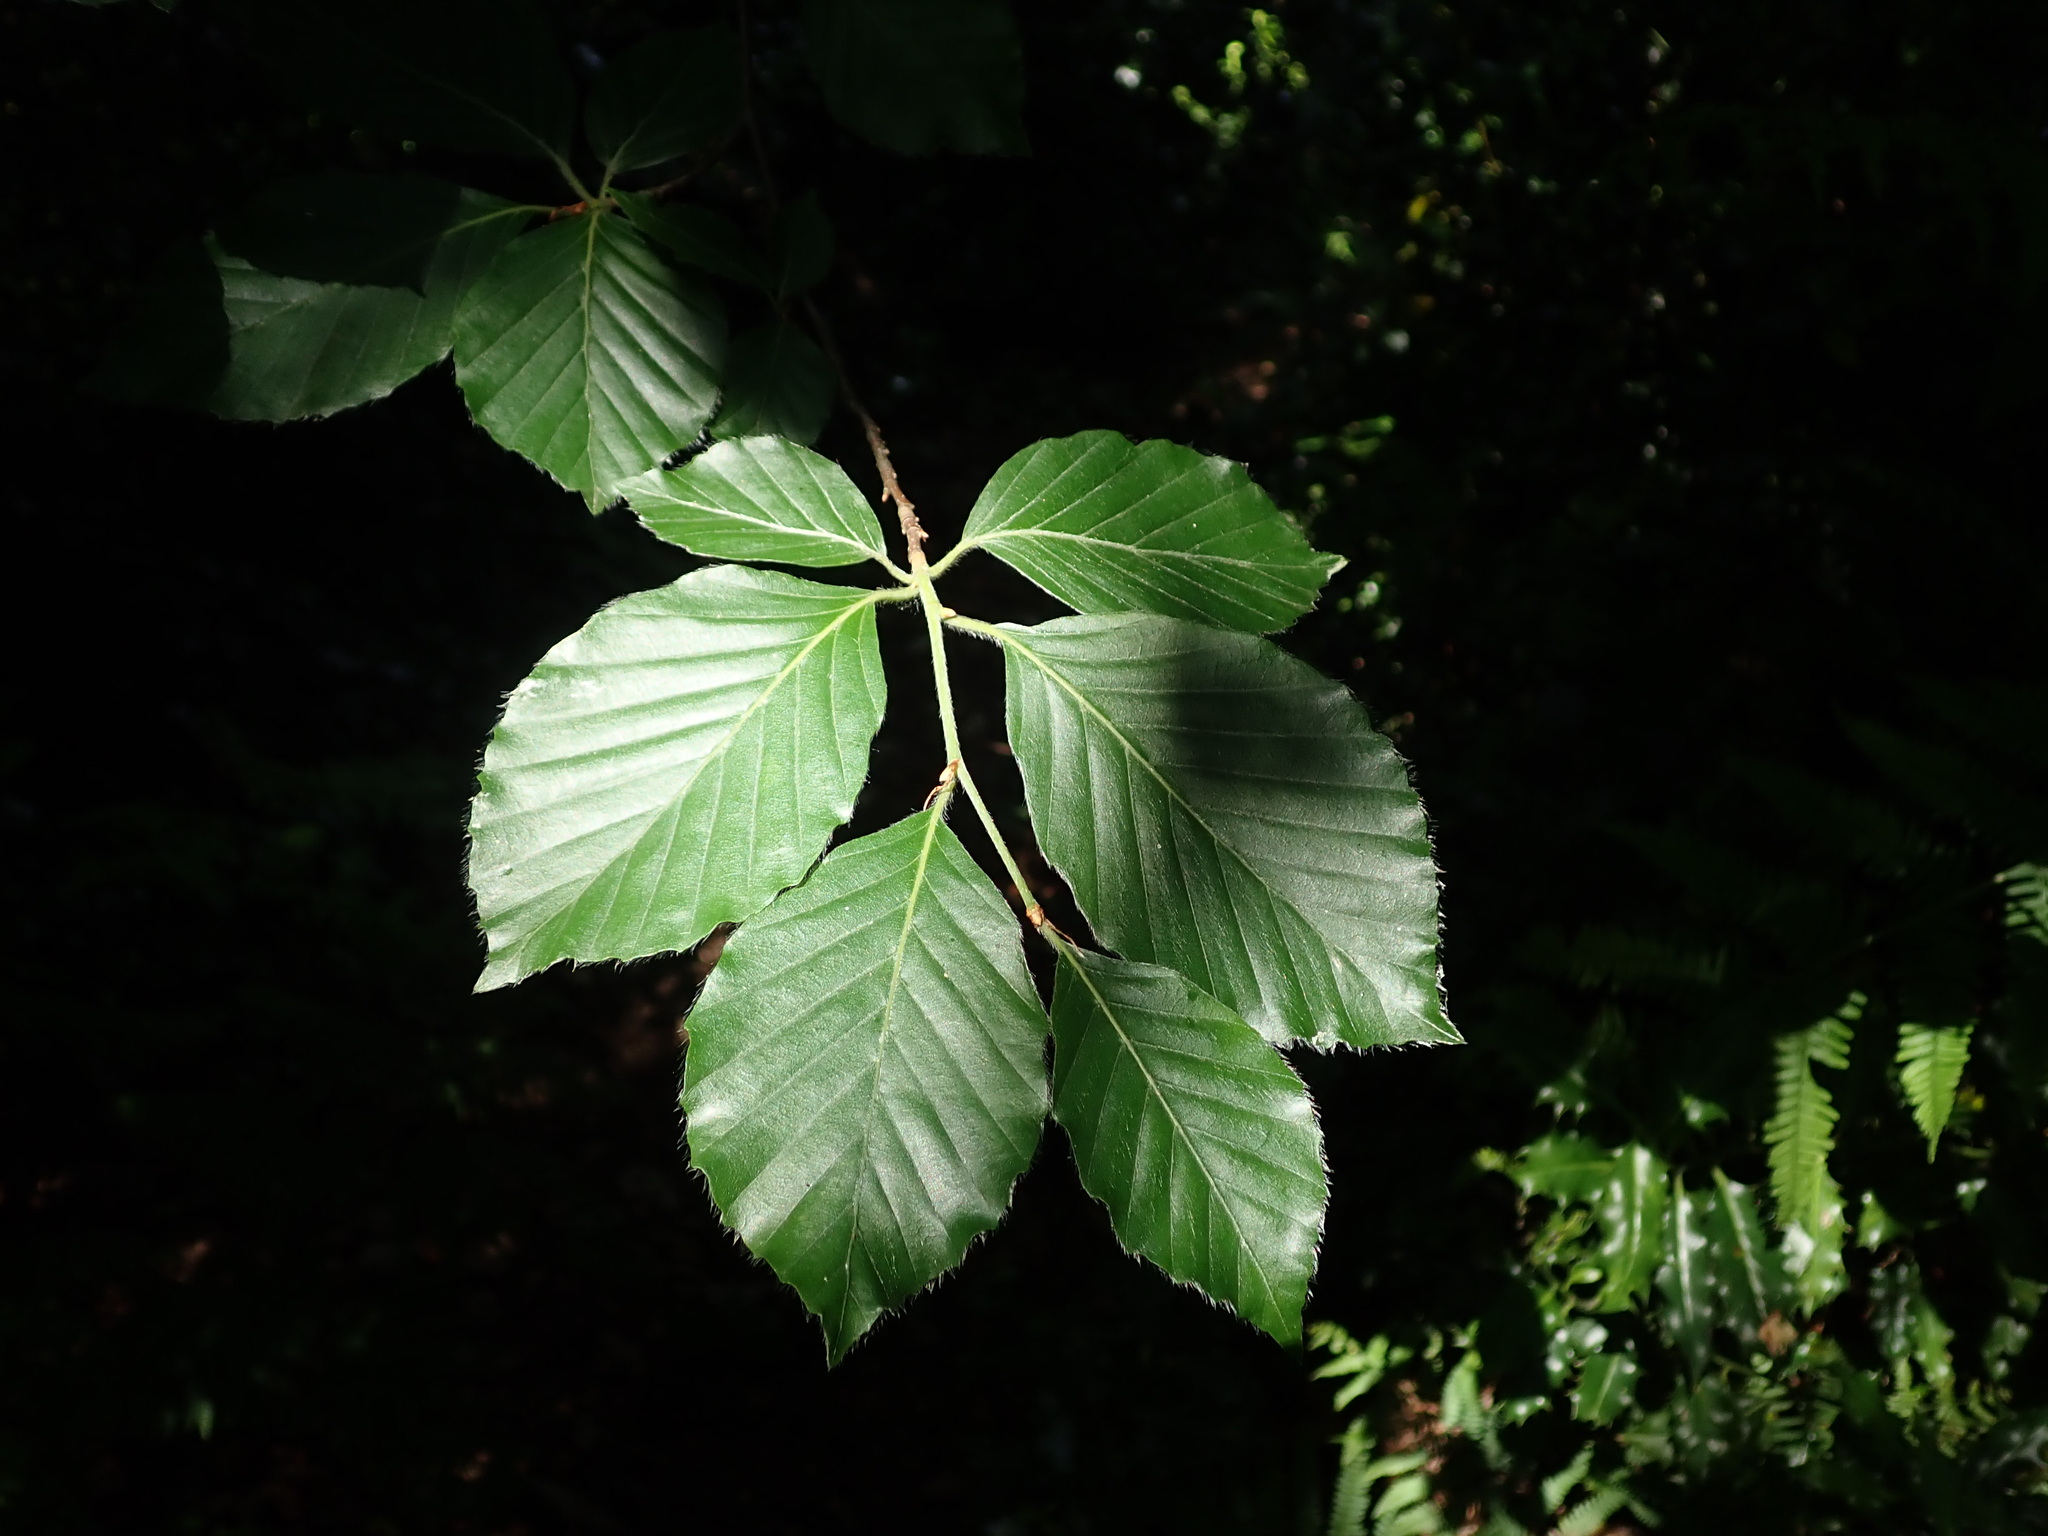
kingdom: Plantae
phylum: Tracheophyta
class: Magnoliopsida
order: Fagales
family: Fagaceae
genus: Fagus
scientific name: Fagus sylvatica
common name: Beech
